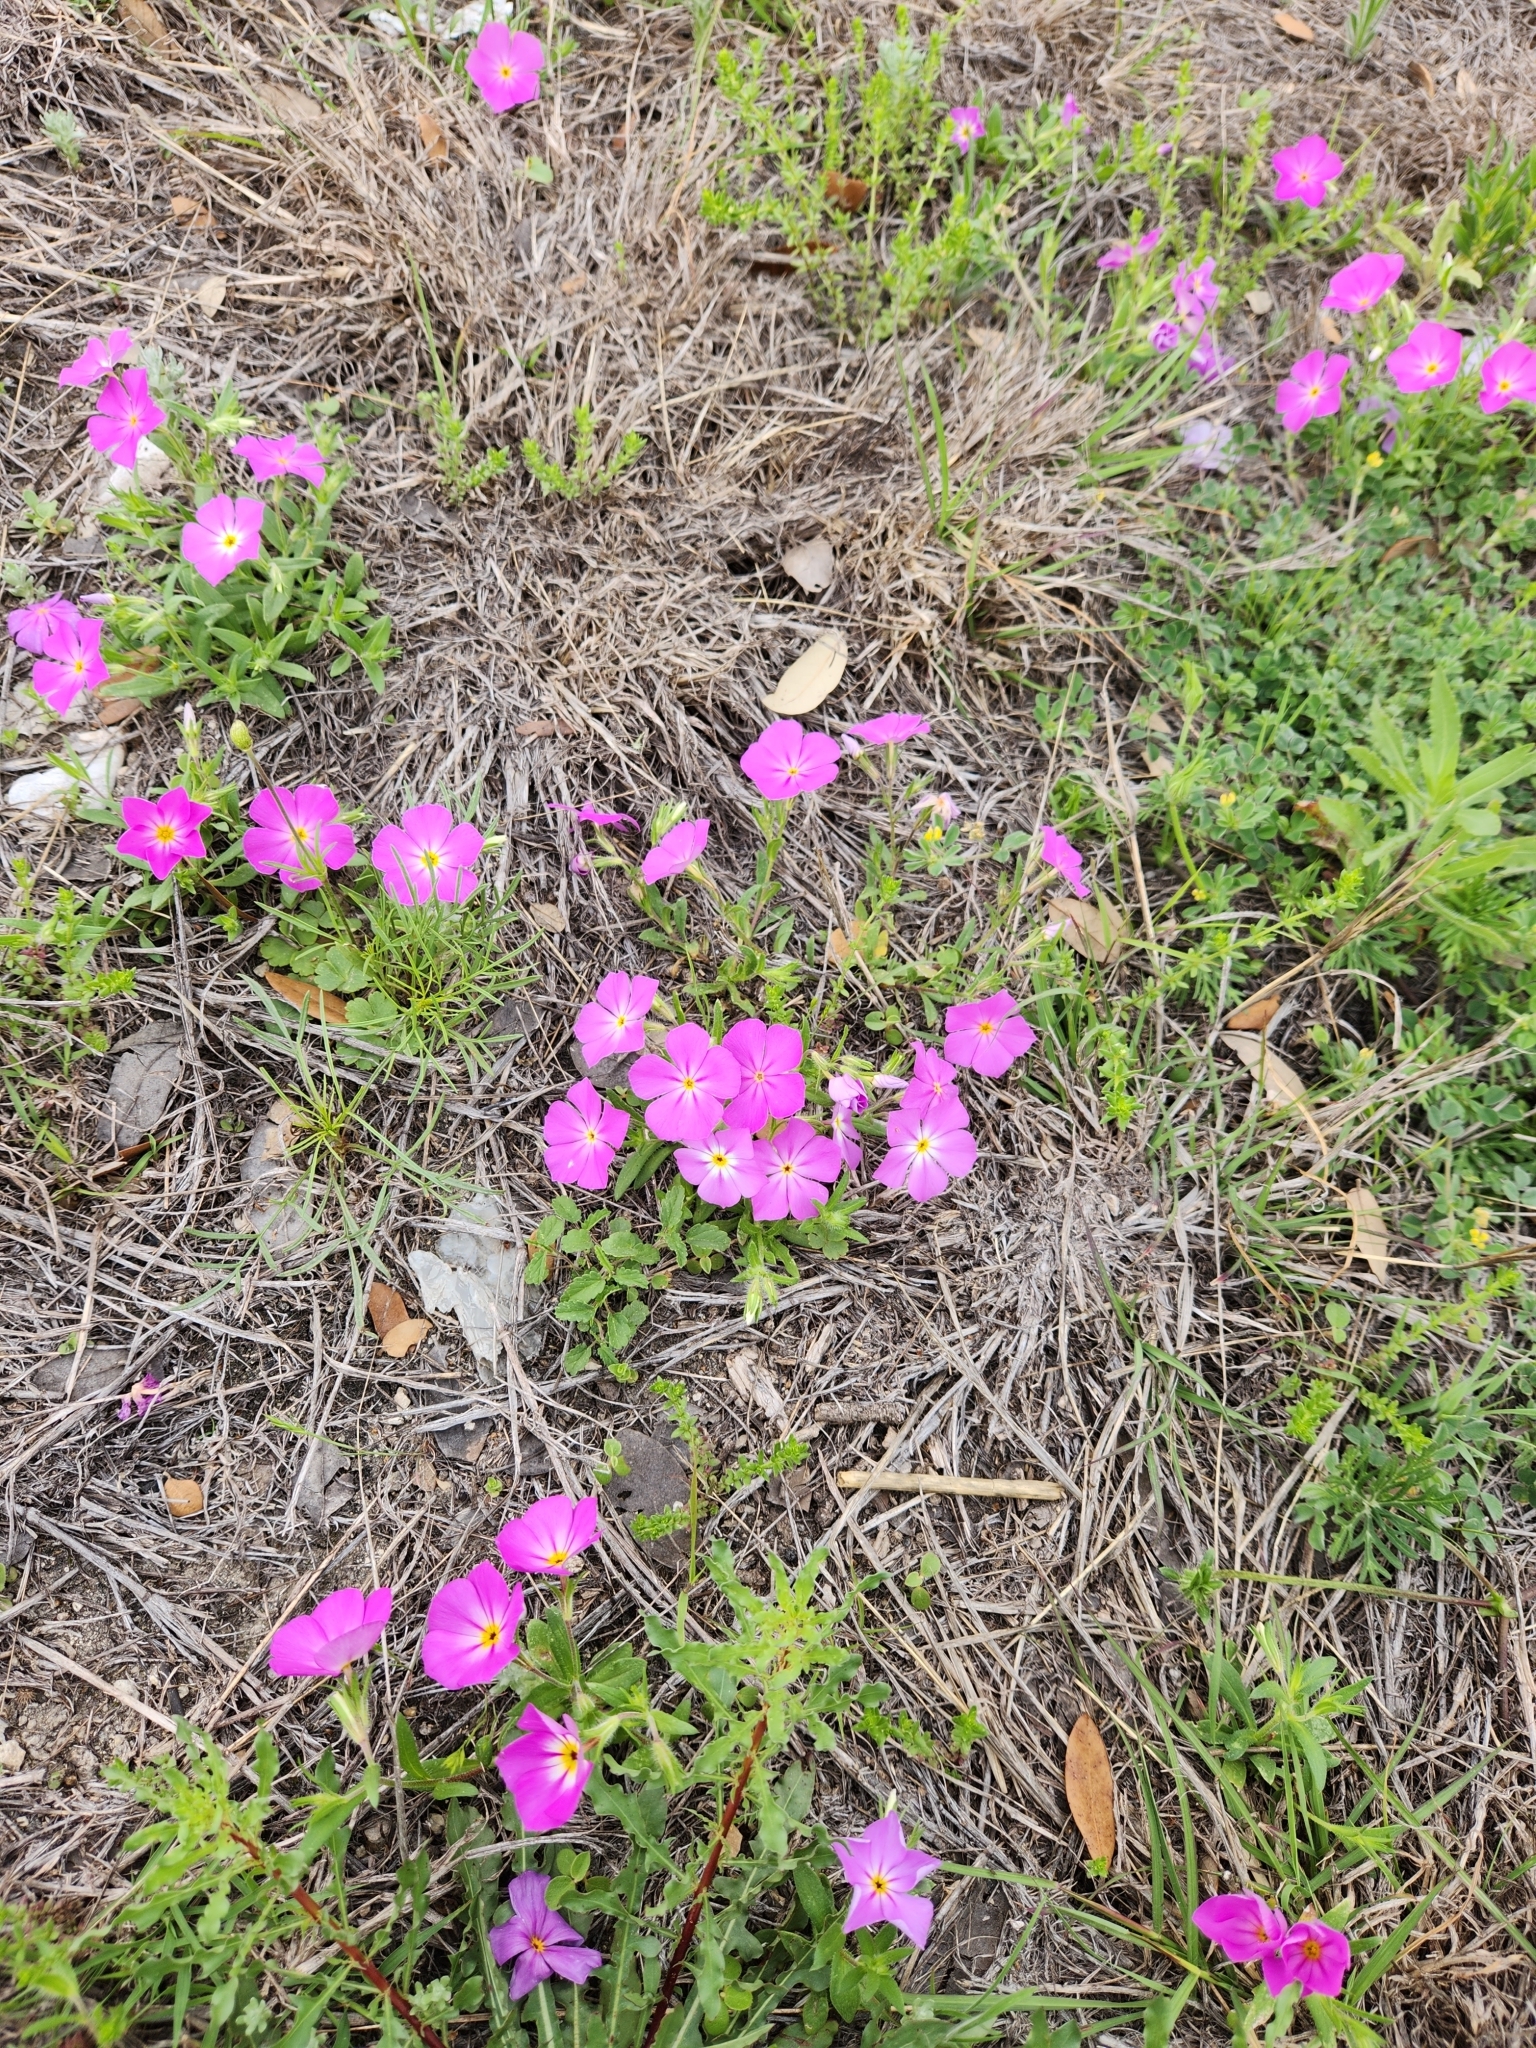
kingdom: Plantae
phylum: Tracheophyta
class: Magnoliopsida
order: Ericales
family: Polemoniaceae
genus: Phlox
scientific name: Phlox roemeriana
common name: Roemer's phlox
